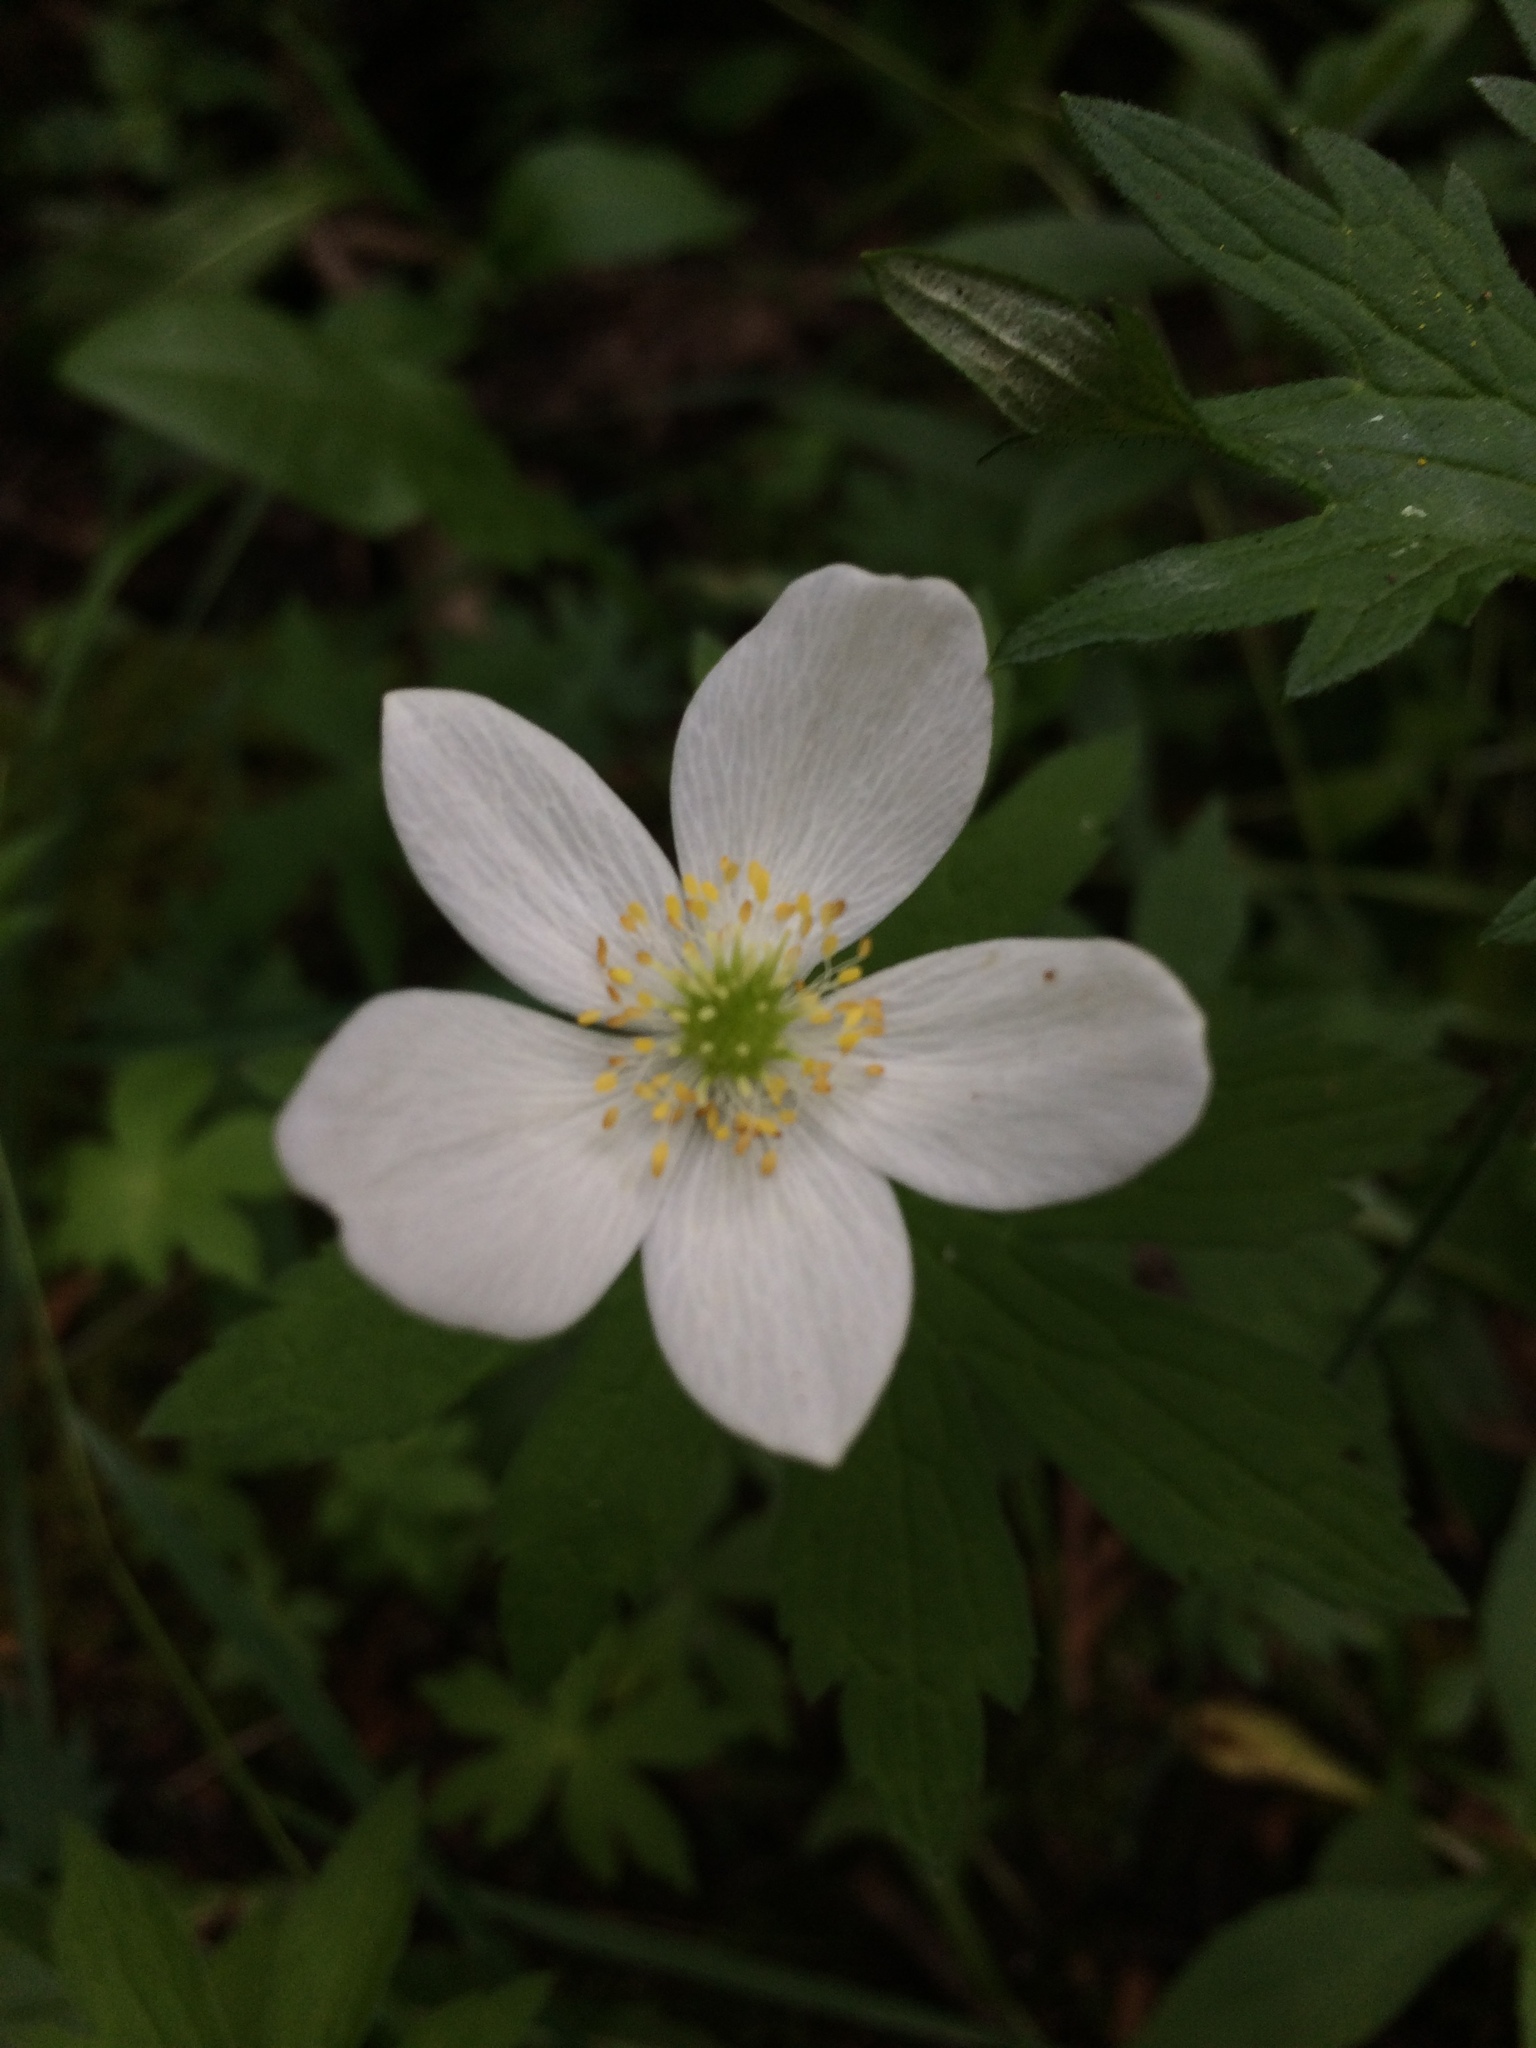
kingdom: Plantae
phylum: Tracheophyta
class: Magnoliopsida
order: Ranunculales
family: Ranunculaceae
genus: Anemonastrum
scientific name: Anemonastrum canadense
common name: Canada anemone
